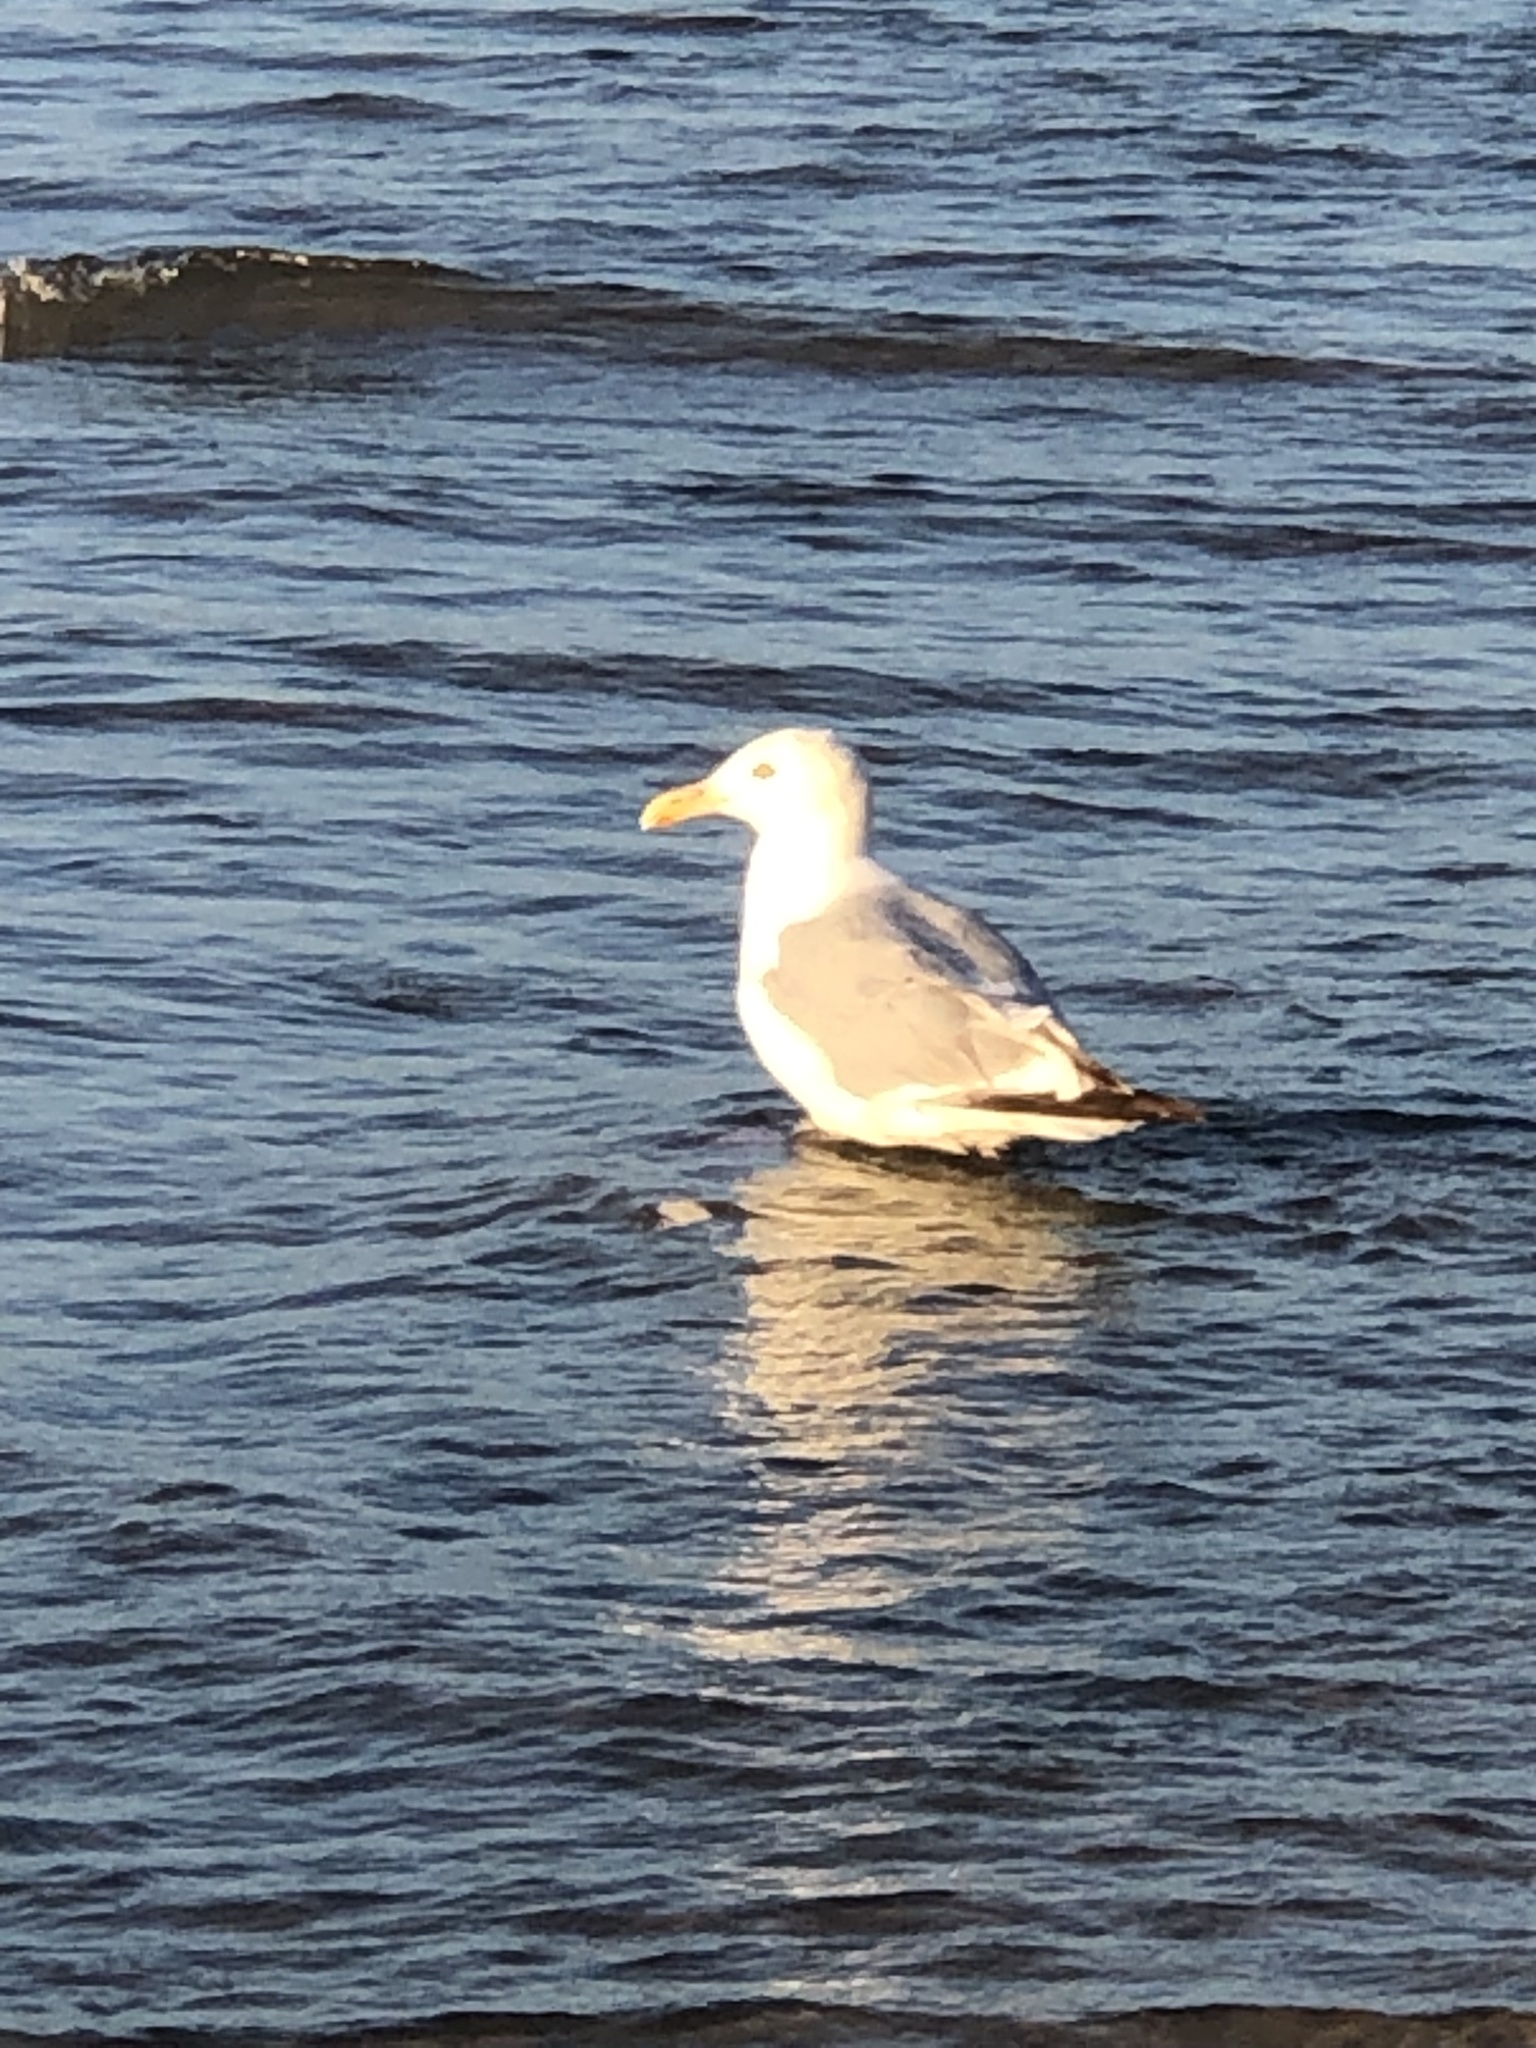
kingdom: Animalia
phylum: Chordata
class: Aves
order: Charadriiformes
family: Laridae
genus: Larus
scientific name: Larus argentatus
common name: Herring gull
